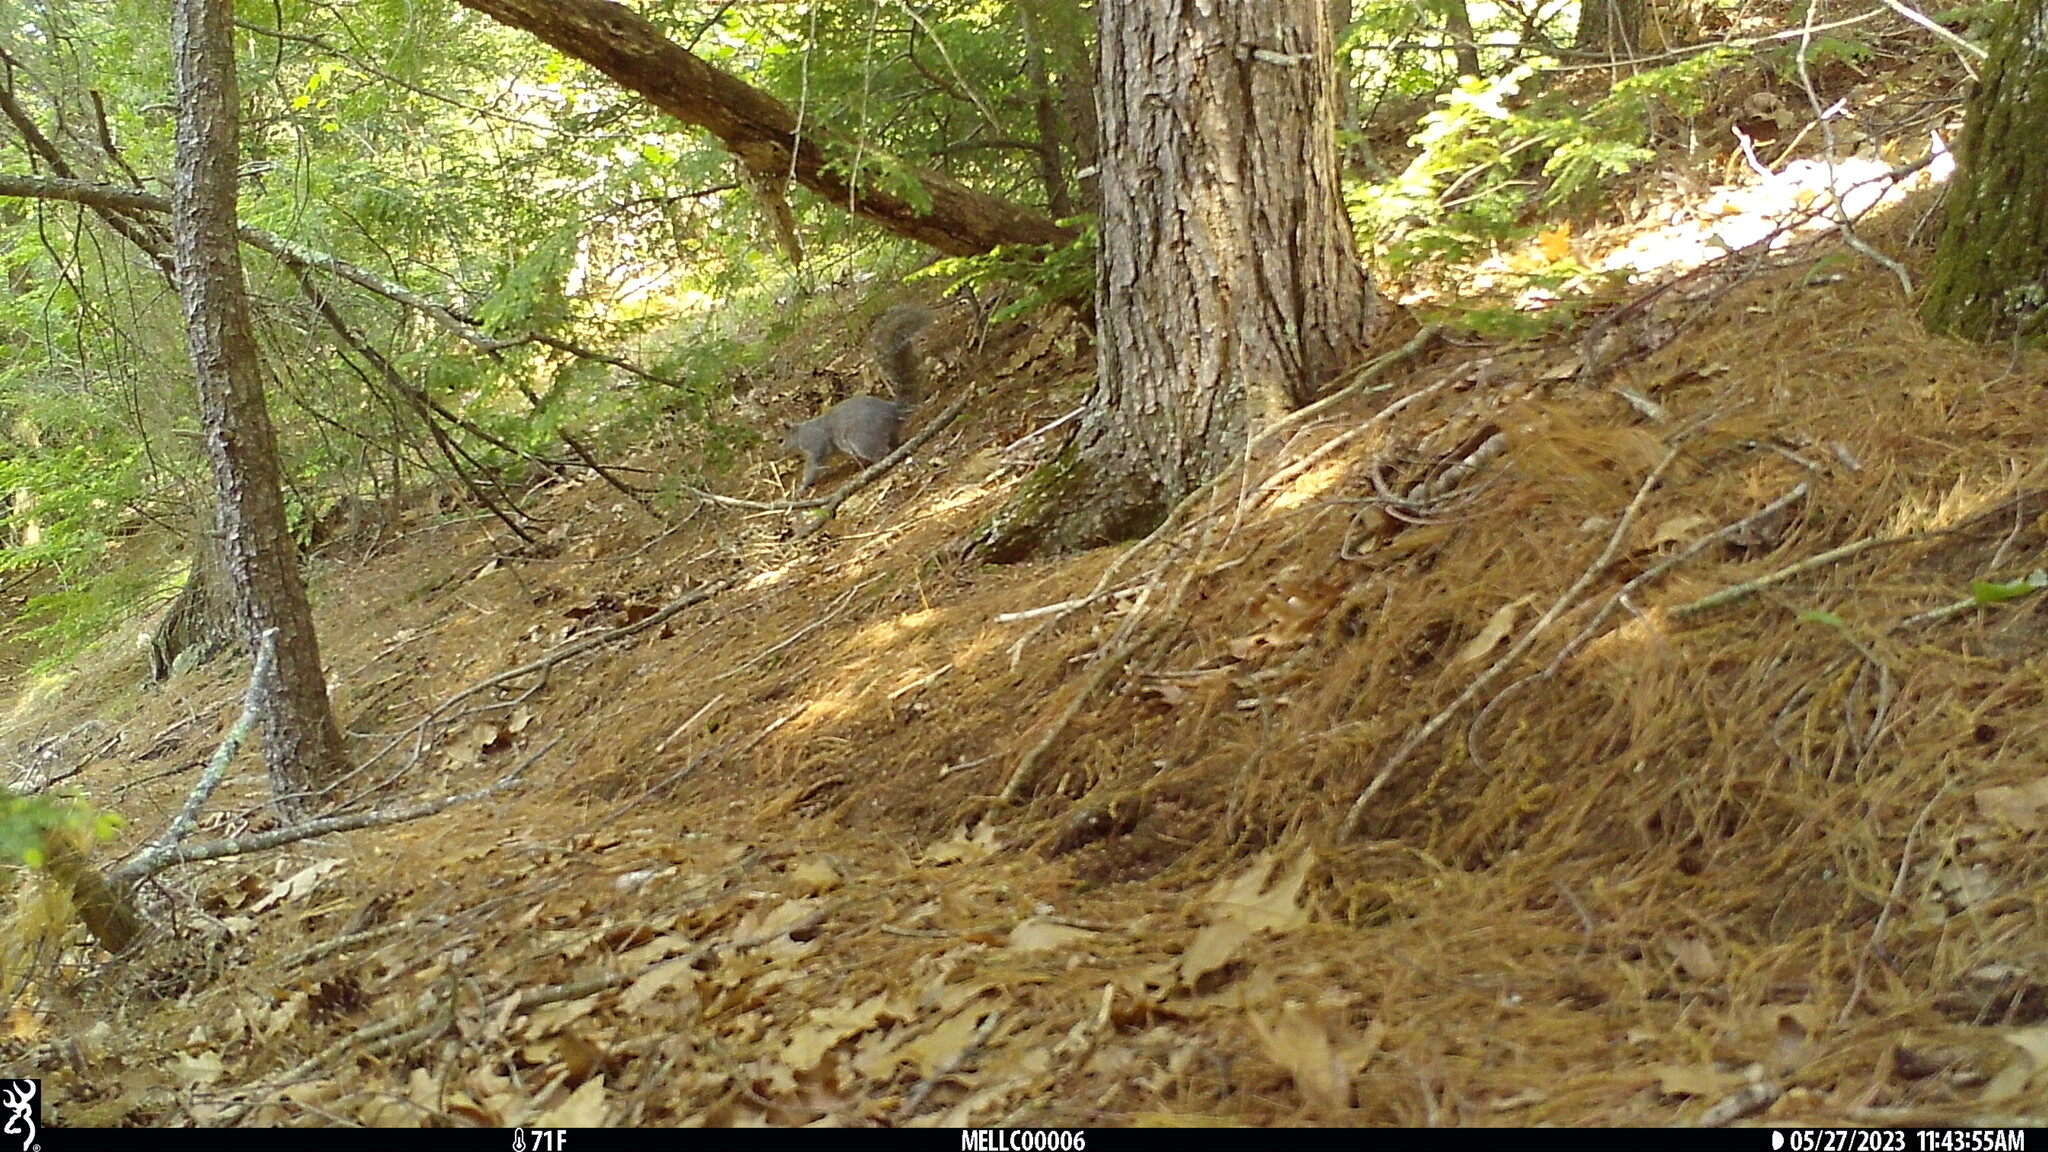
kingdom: Animalia
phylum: Chordata
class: Mammalia
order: Rodentia
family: Sciuridae
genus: Sciurus
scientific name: Sciurus carolinensis
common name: Eastern gray squirrel
